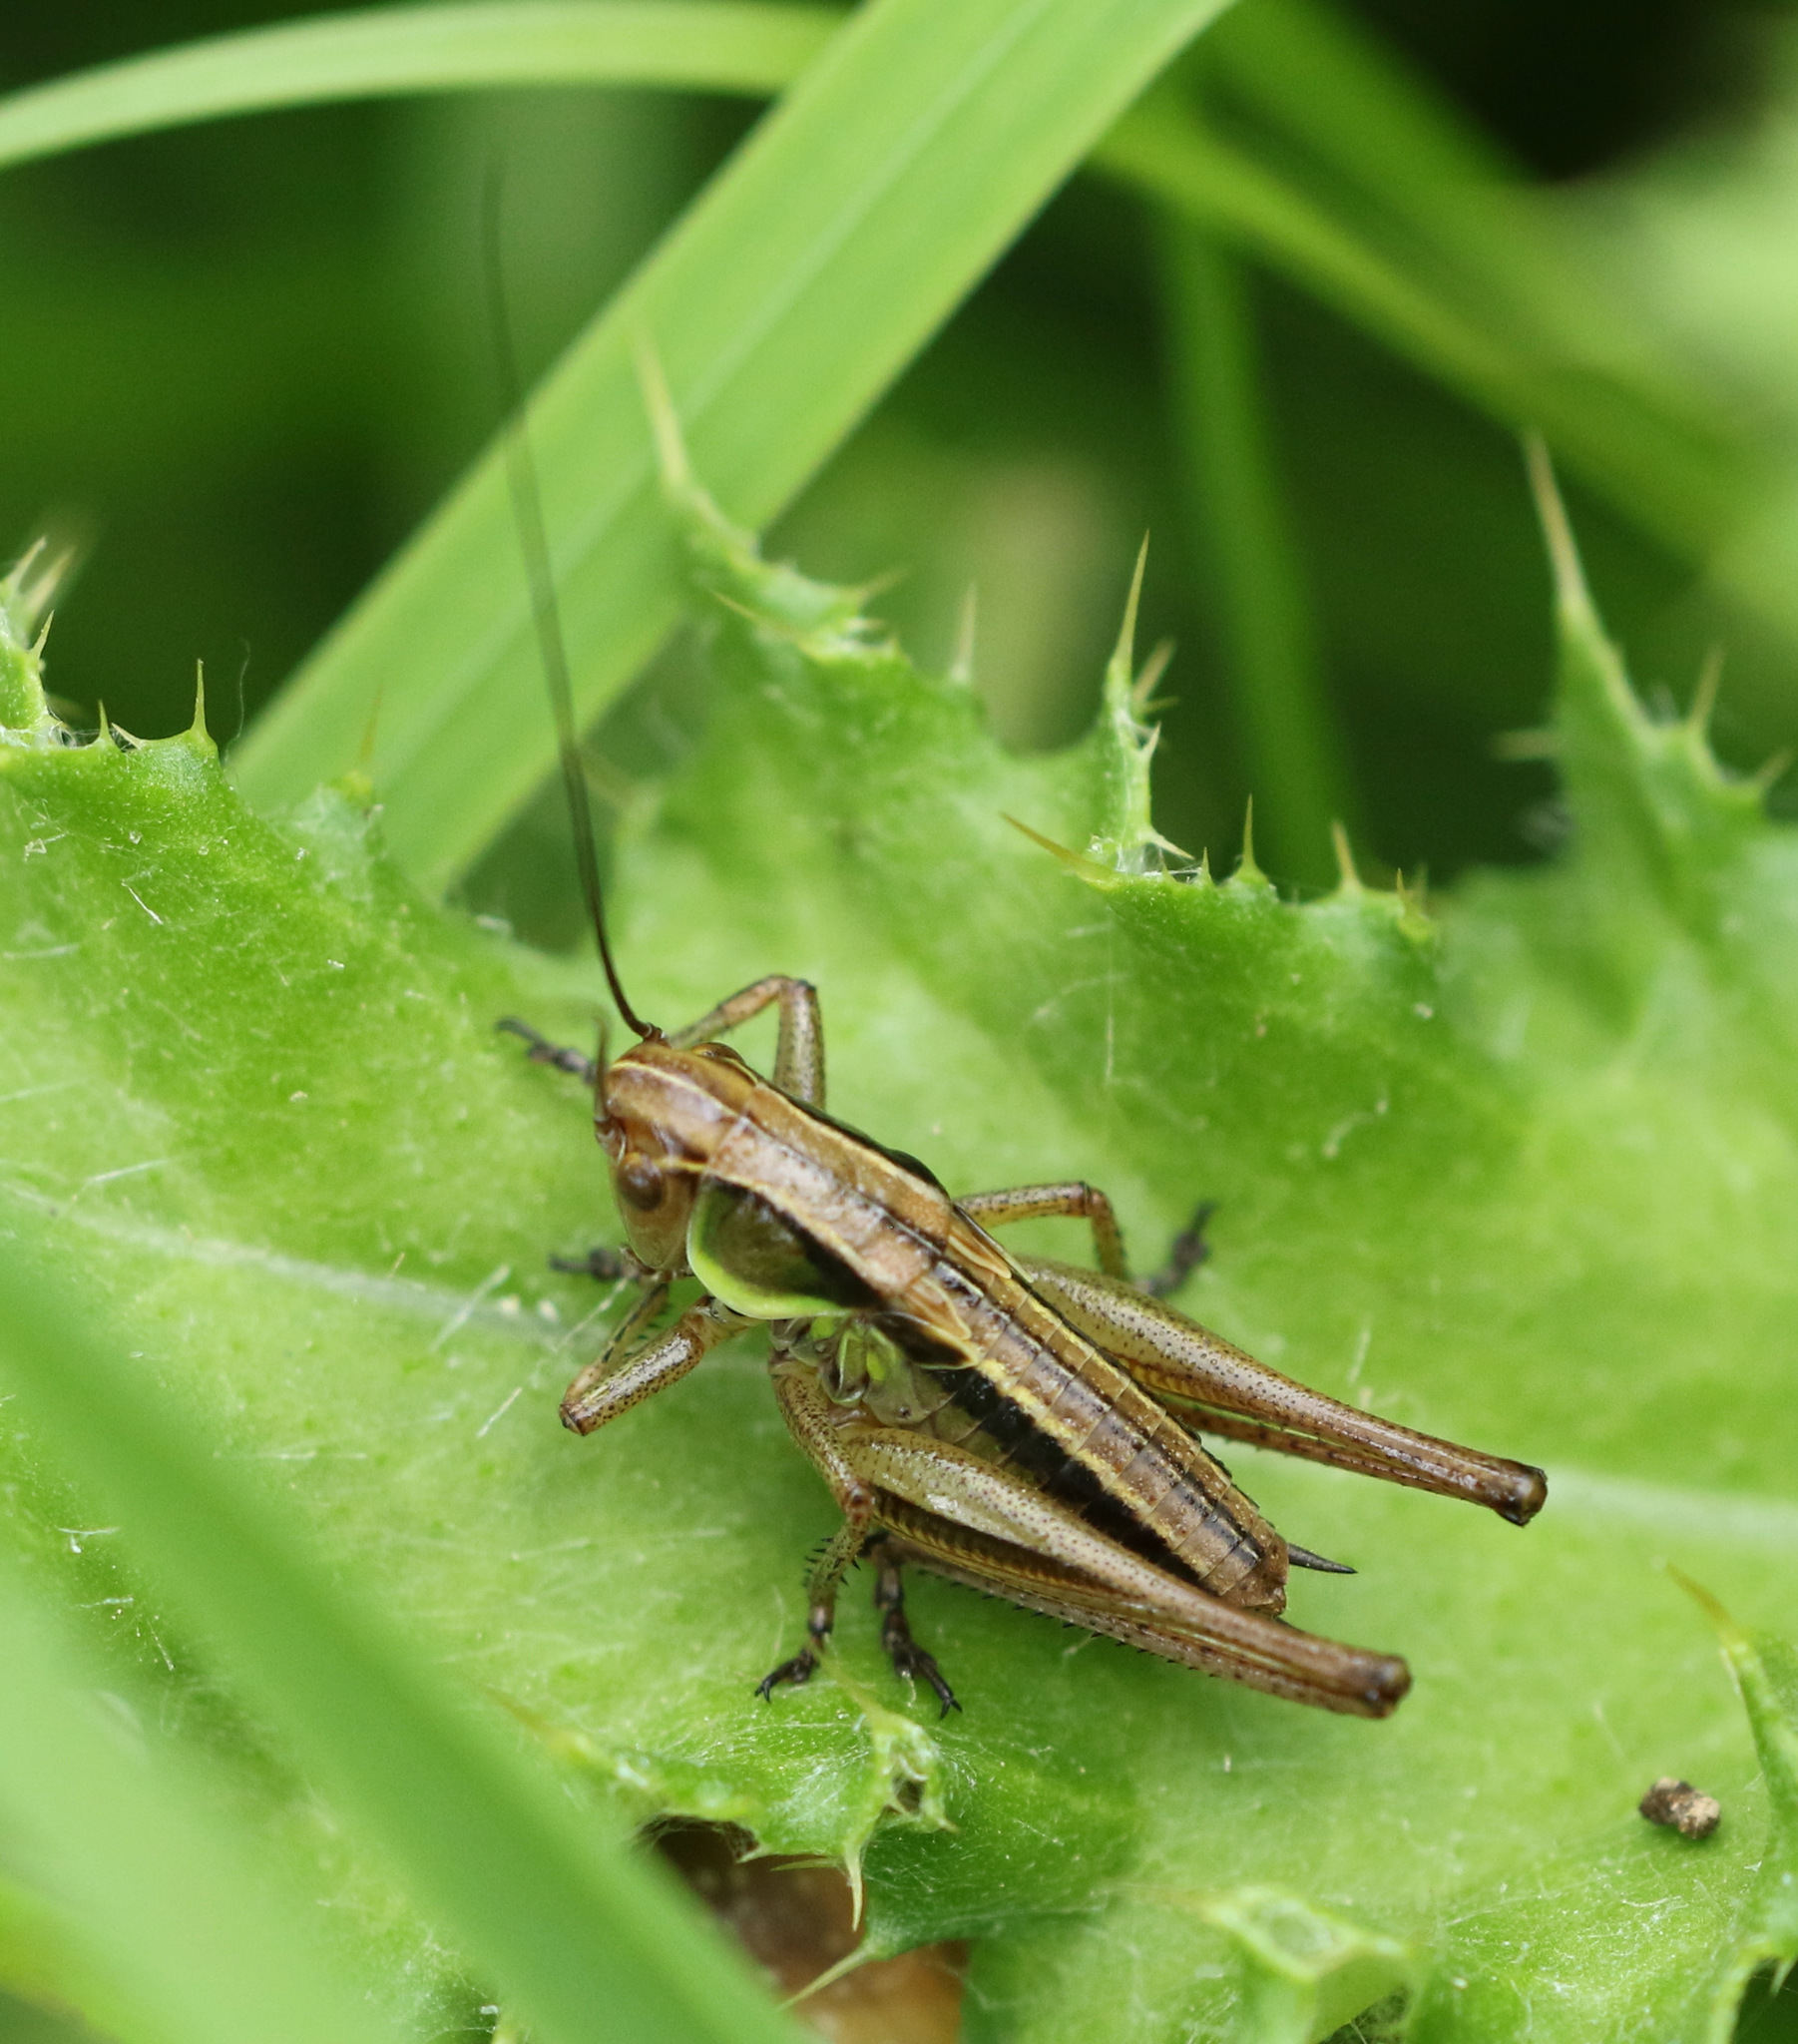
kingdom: Animalia
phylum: Arthropoda
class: Insecta
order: Orthoptera
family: Tettigoniidae
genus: Roeseliana
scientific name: Roeseliana roeselii
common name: Roesel's bush cricket
